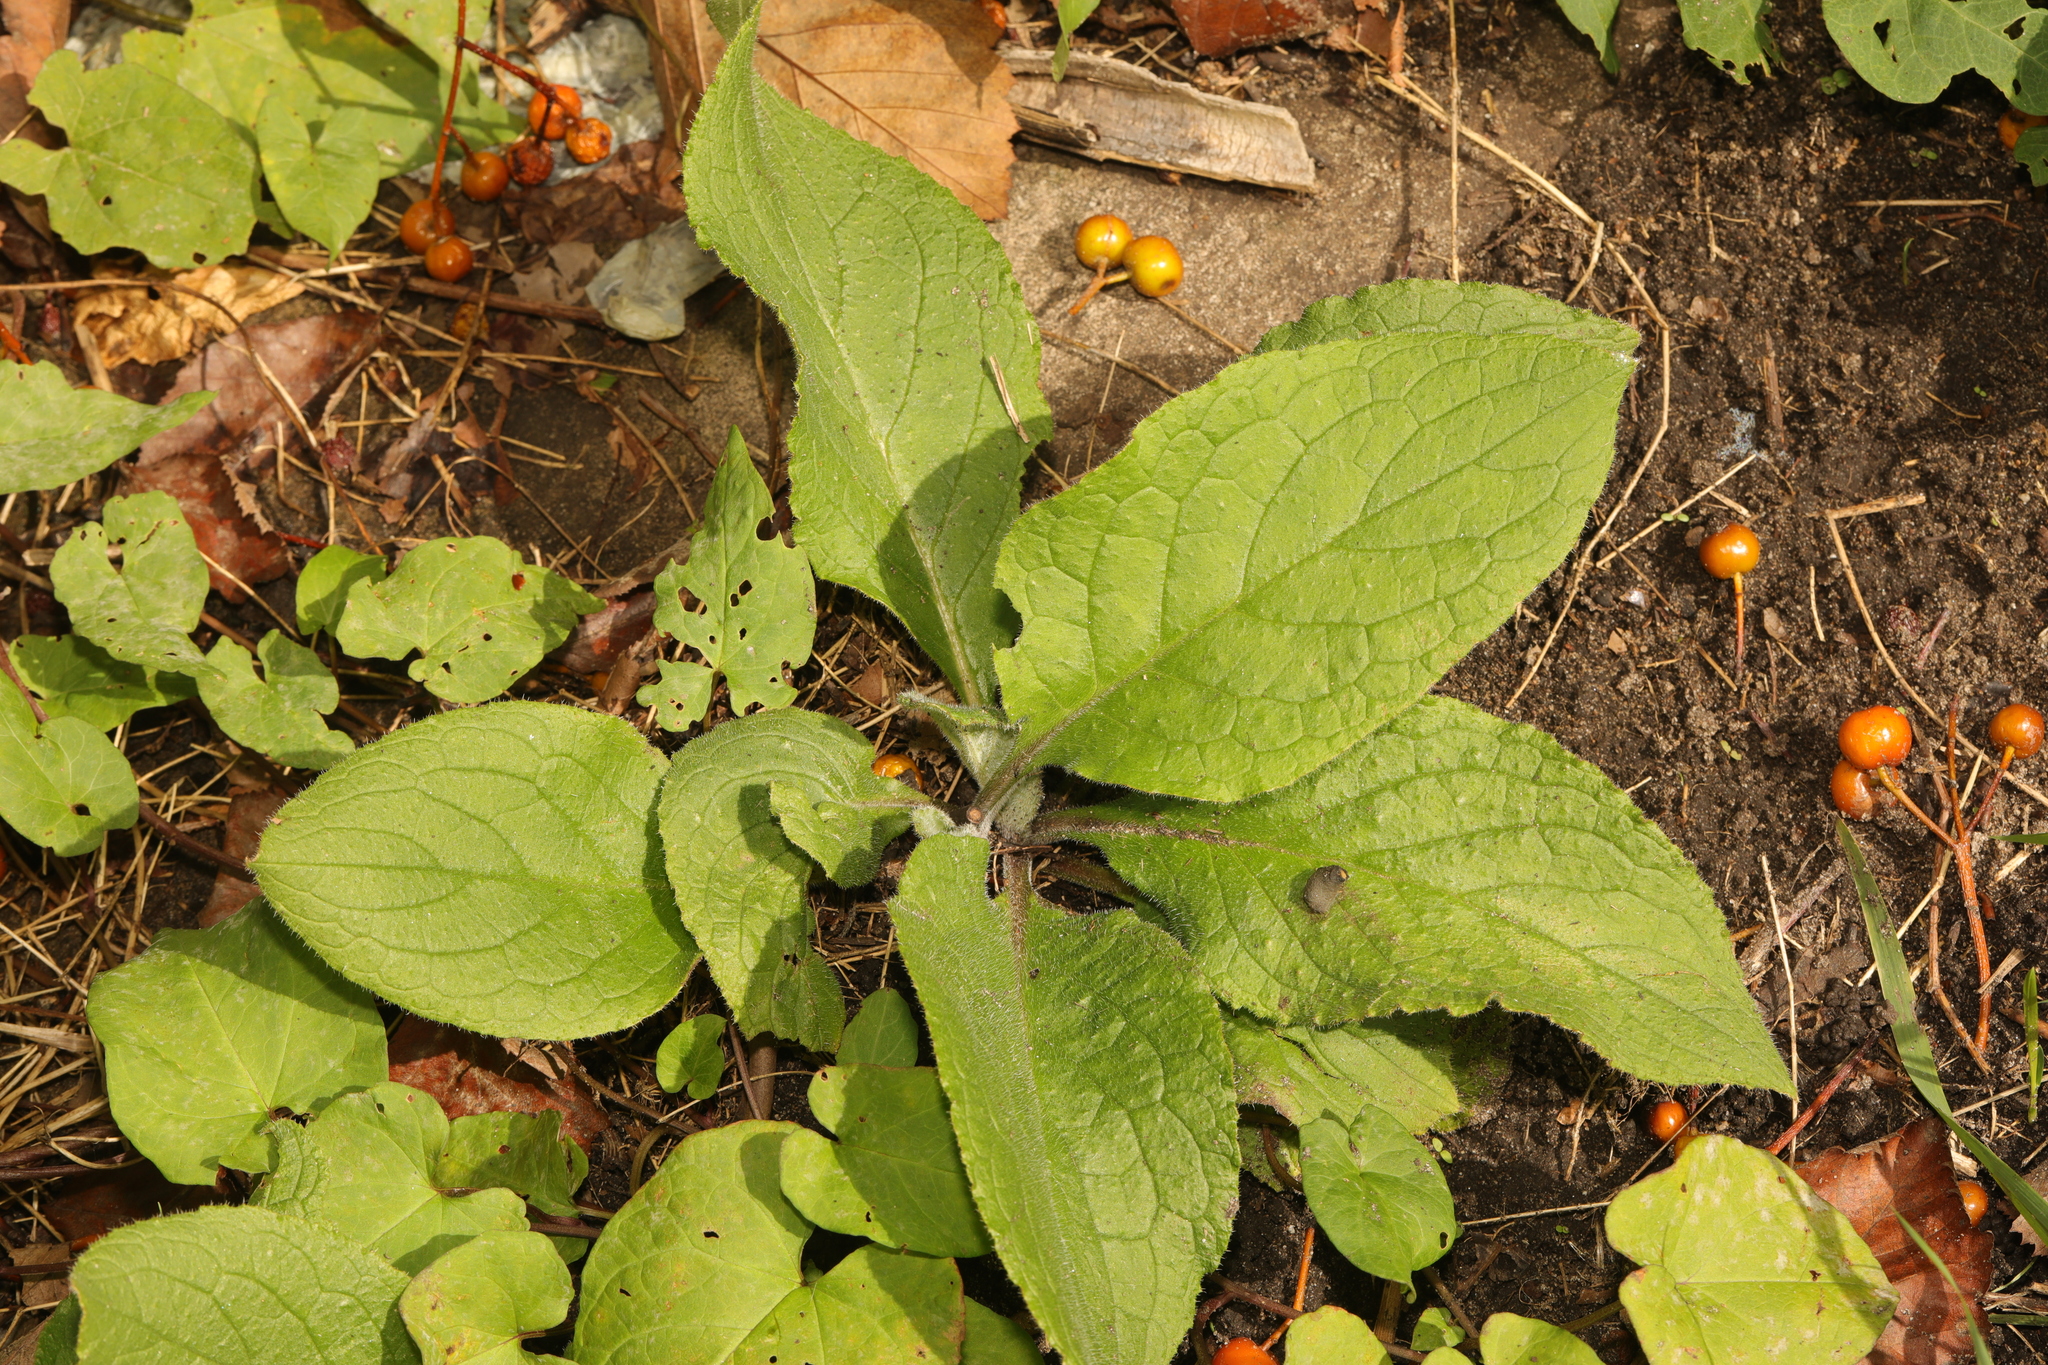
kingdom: Plantae
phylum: Tracheophyta
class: Magnoliopsida
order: Boraginales
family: Boraginaceae
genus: Pentaglottis
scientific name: Pentaglottis sempervirens
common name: Green alkanet
